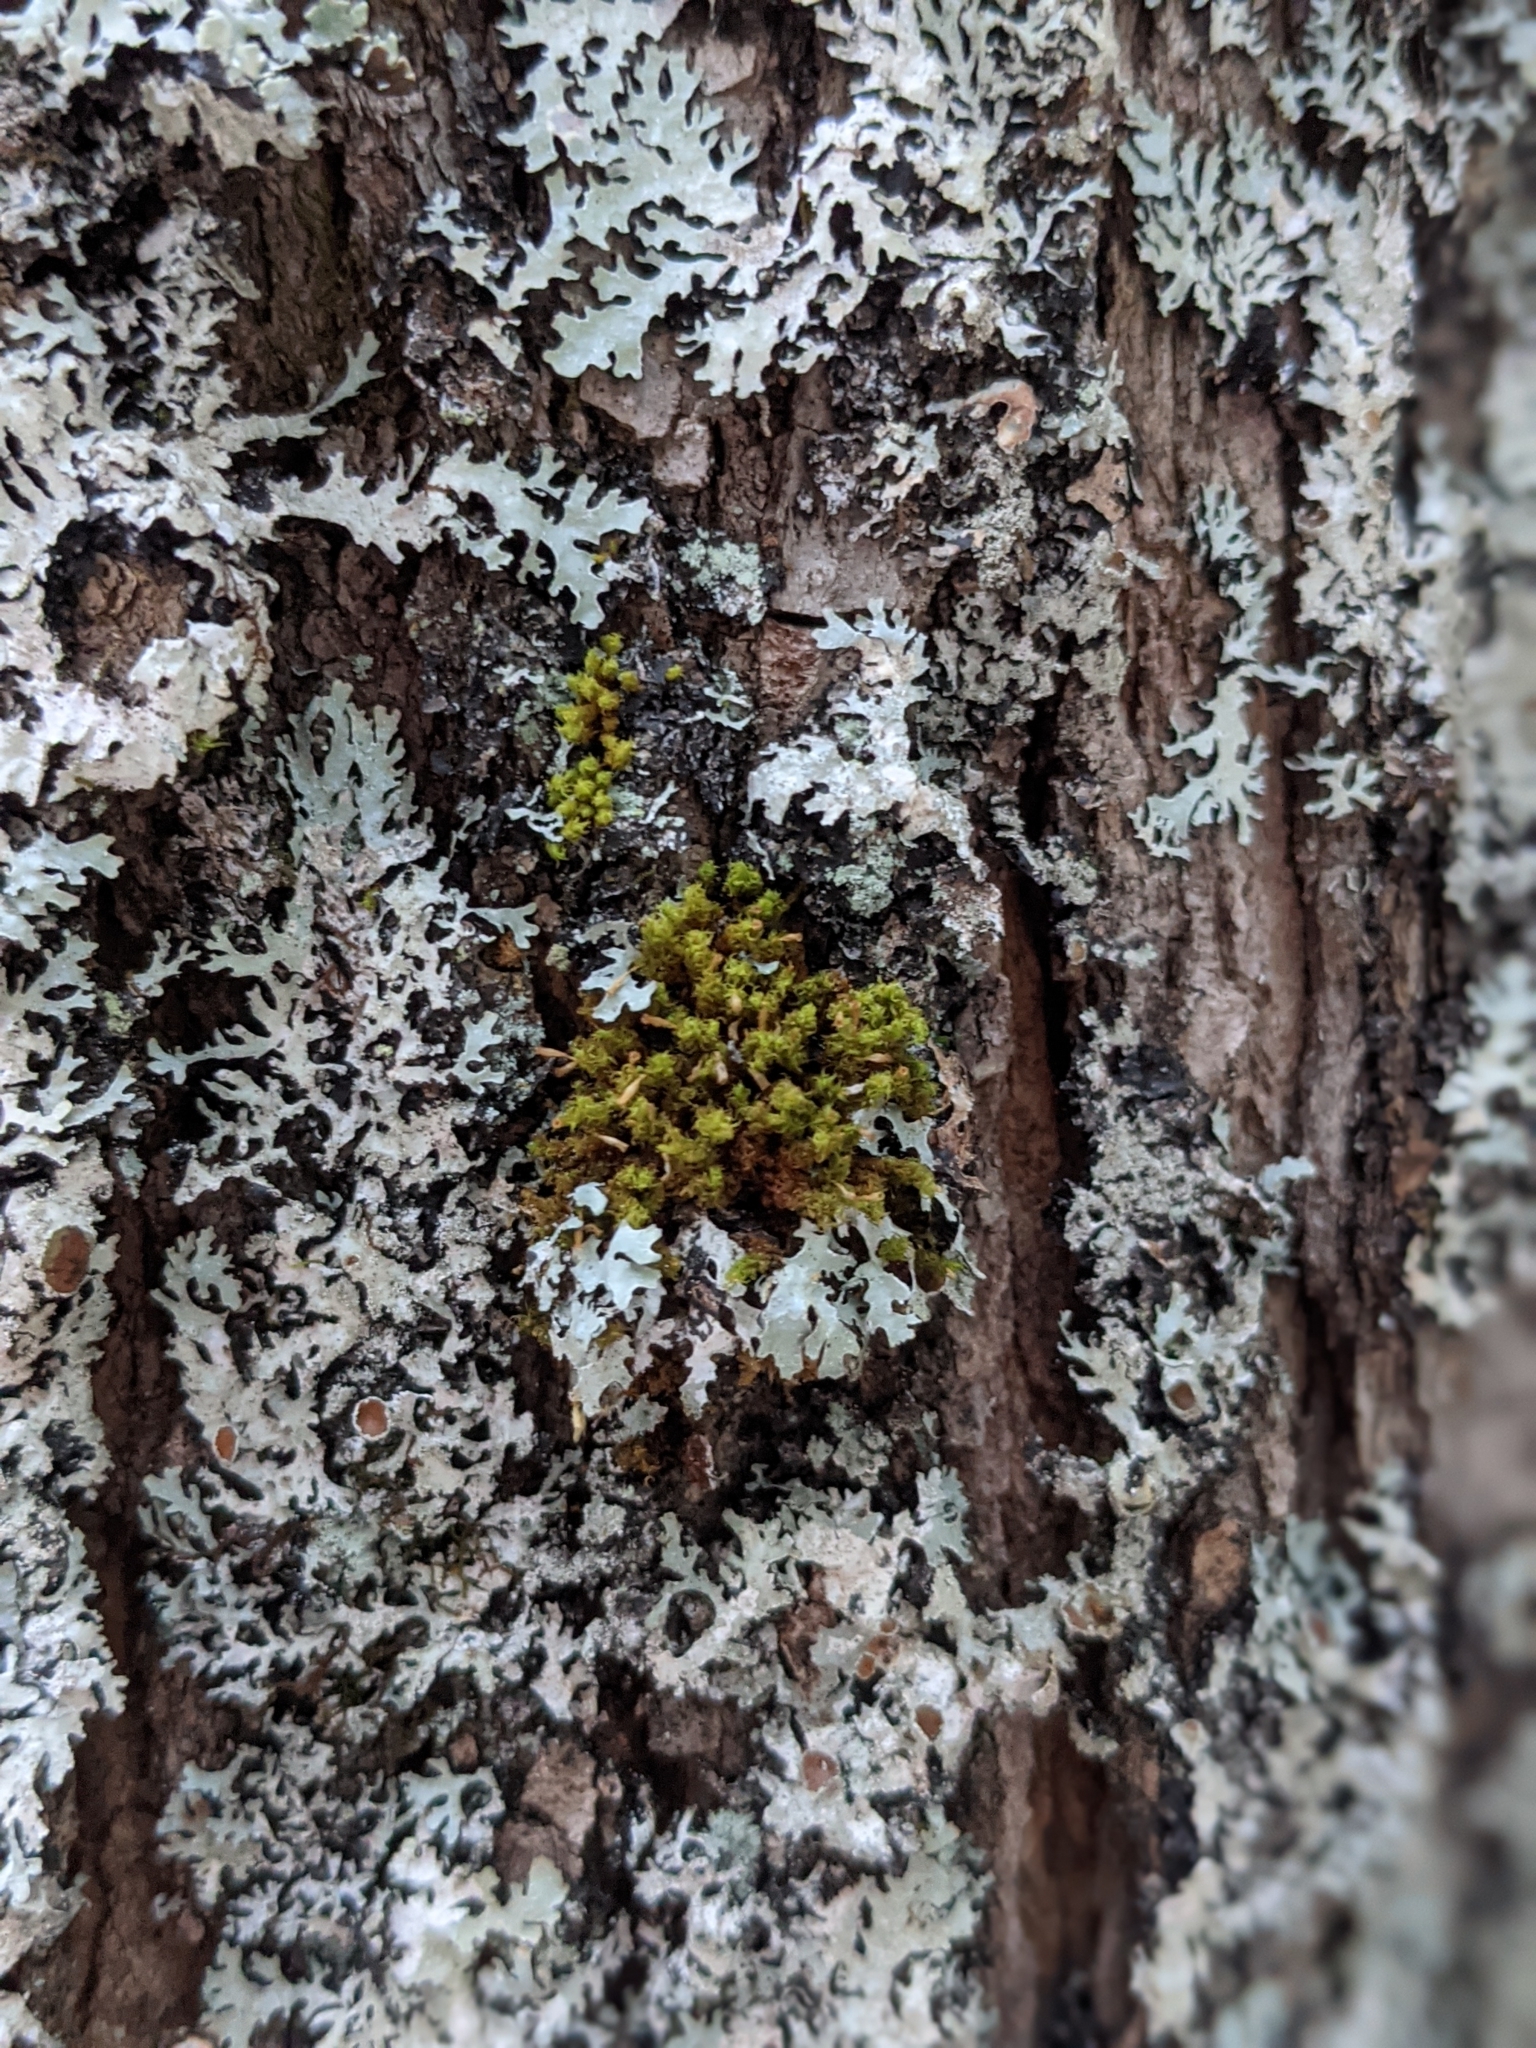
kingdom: Plantae
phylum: Bryophyta
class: Bryopsida
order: Orthotrichales
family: Orthotrichaceae
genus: Ulota
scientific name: Ulota crispa
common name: Crisped pincushion moss
